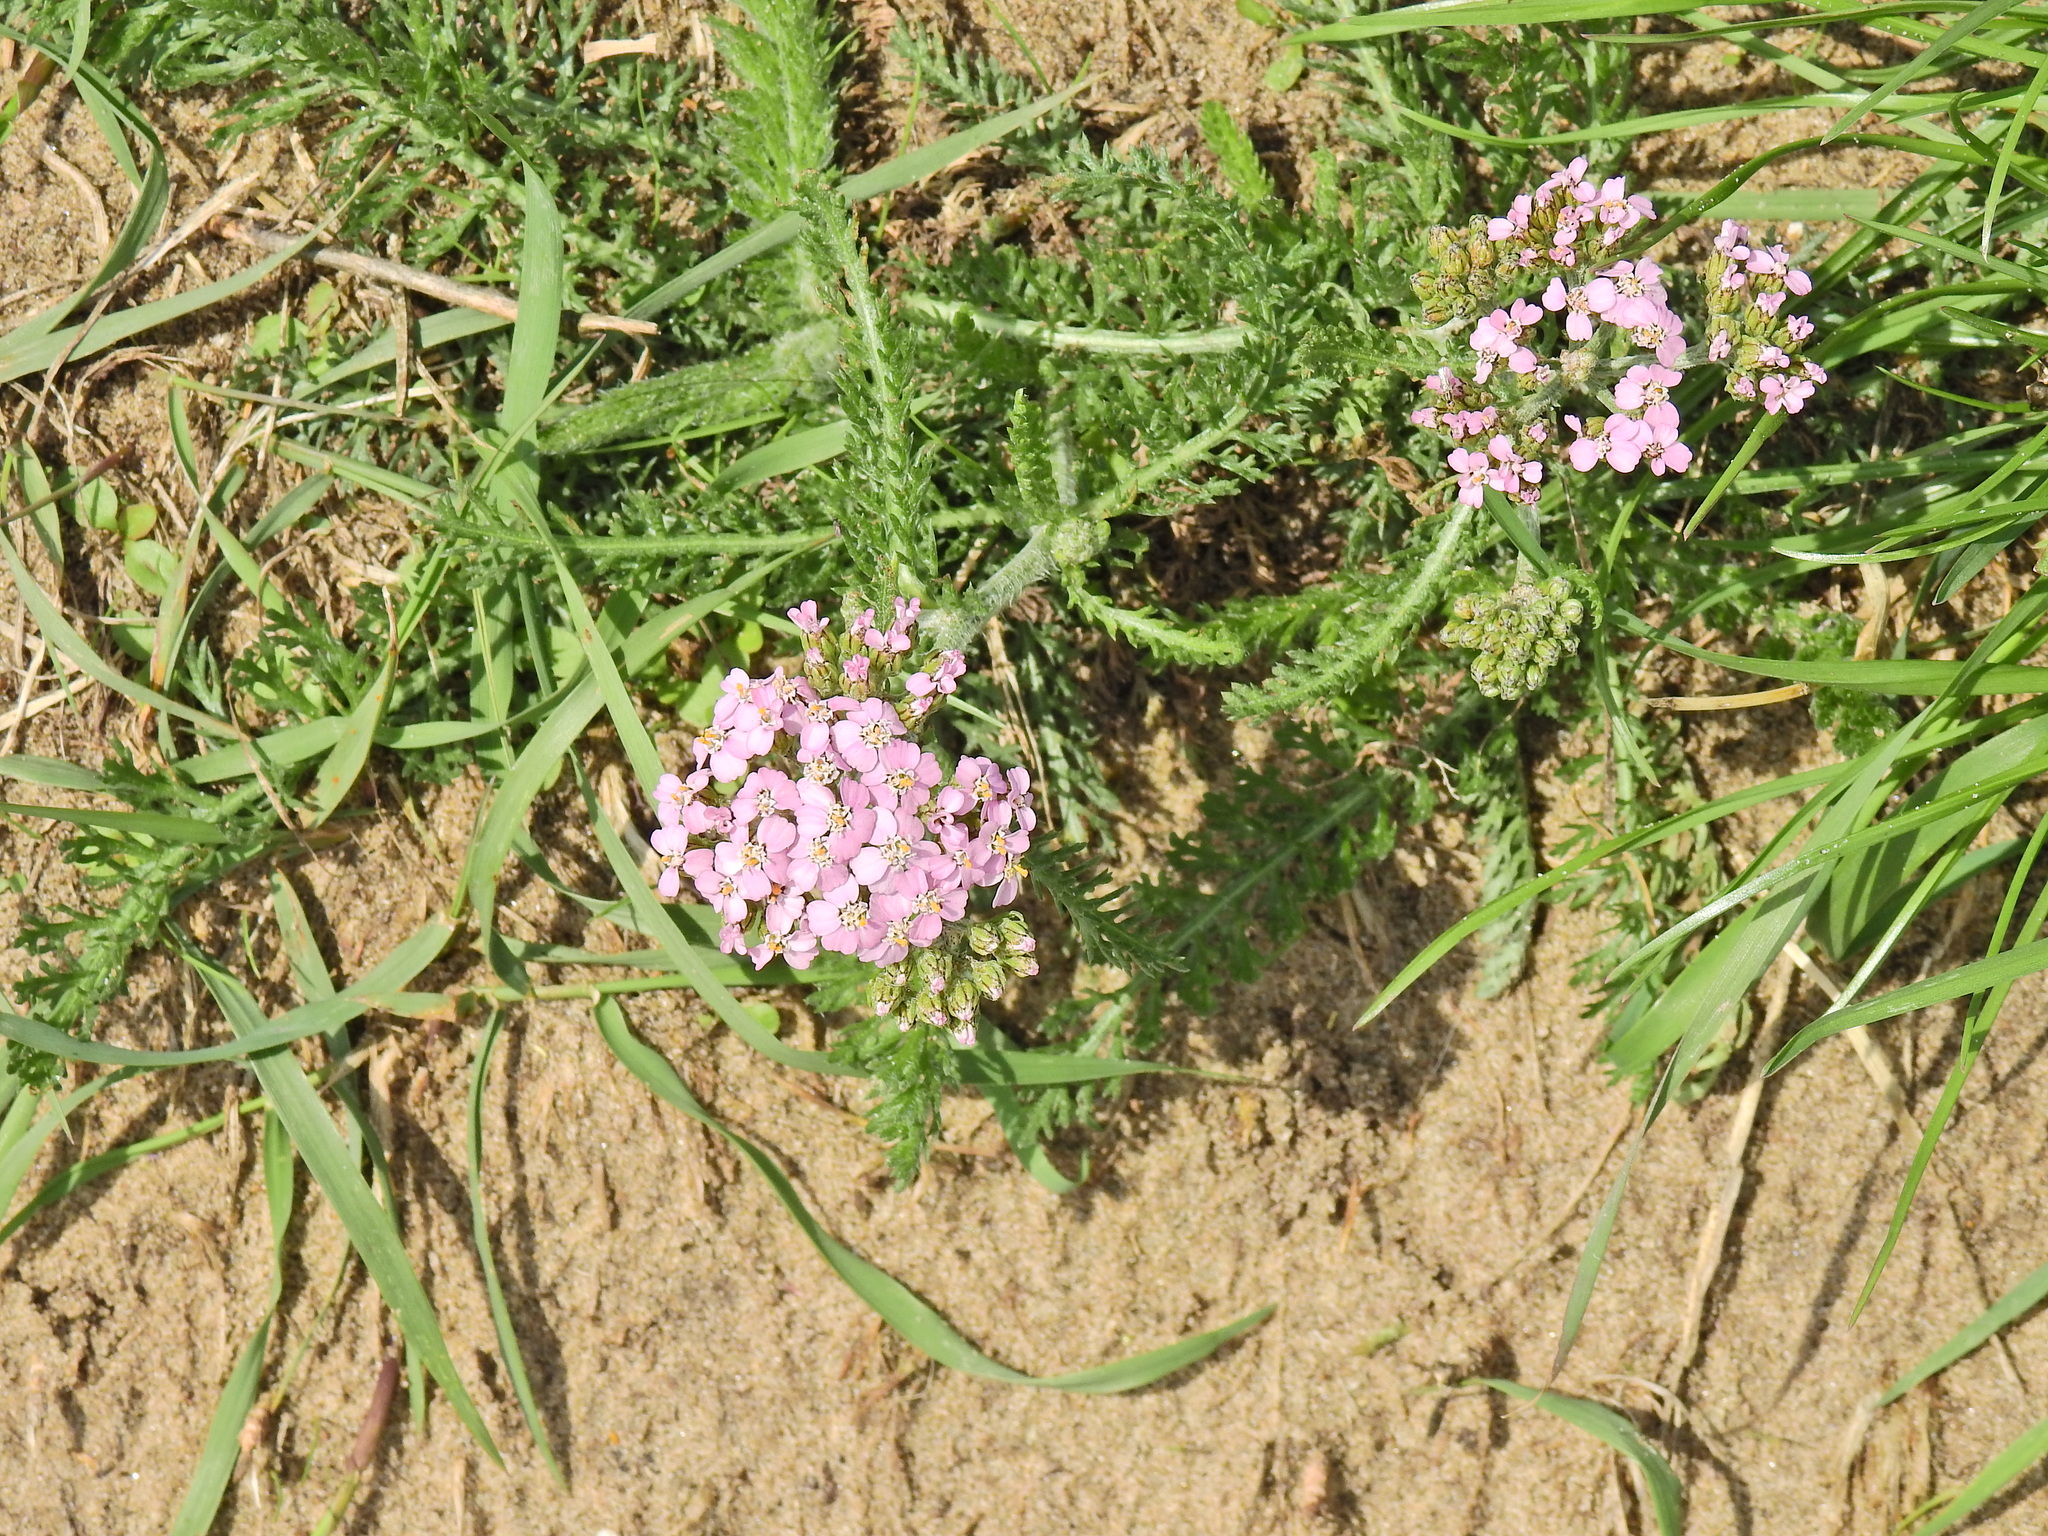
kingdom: Plantae
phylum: Tracheophyta
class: Magnoliopsida
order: Asterales
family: Asteraceae
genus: Achillea
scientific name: Achillea millefolium
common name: Yarrow
